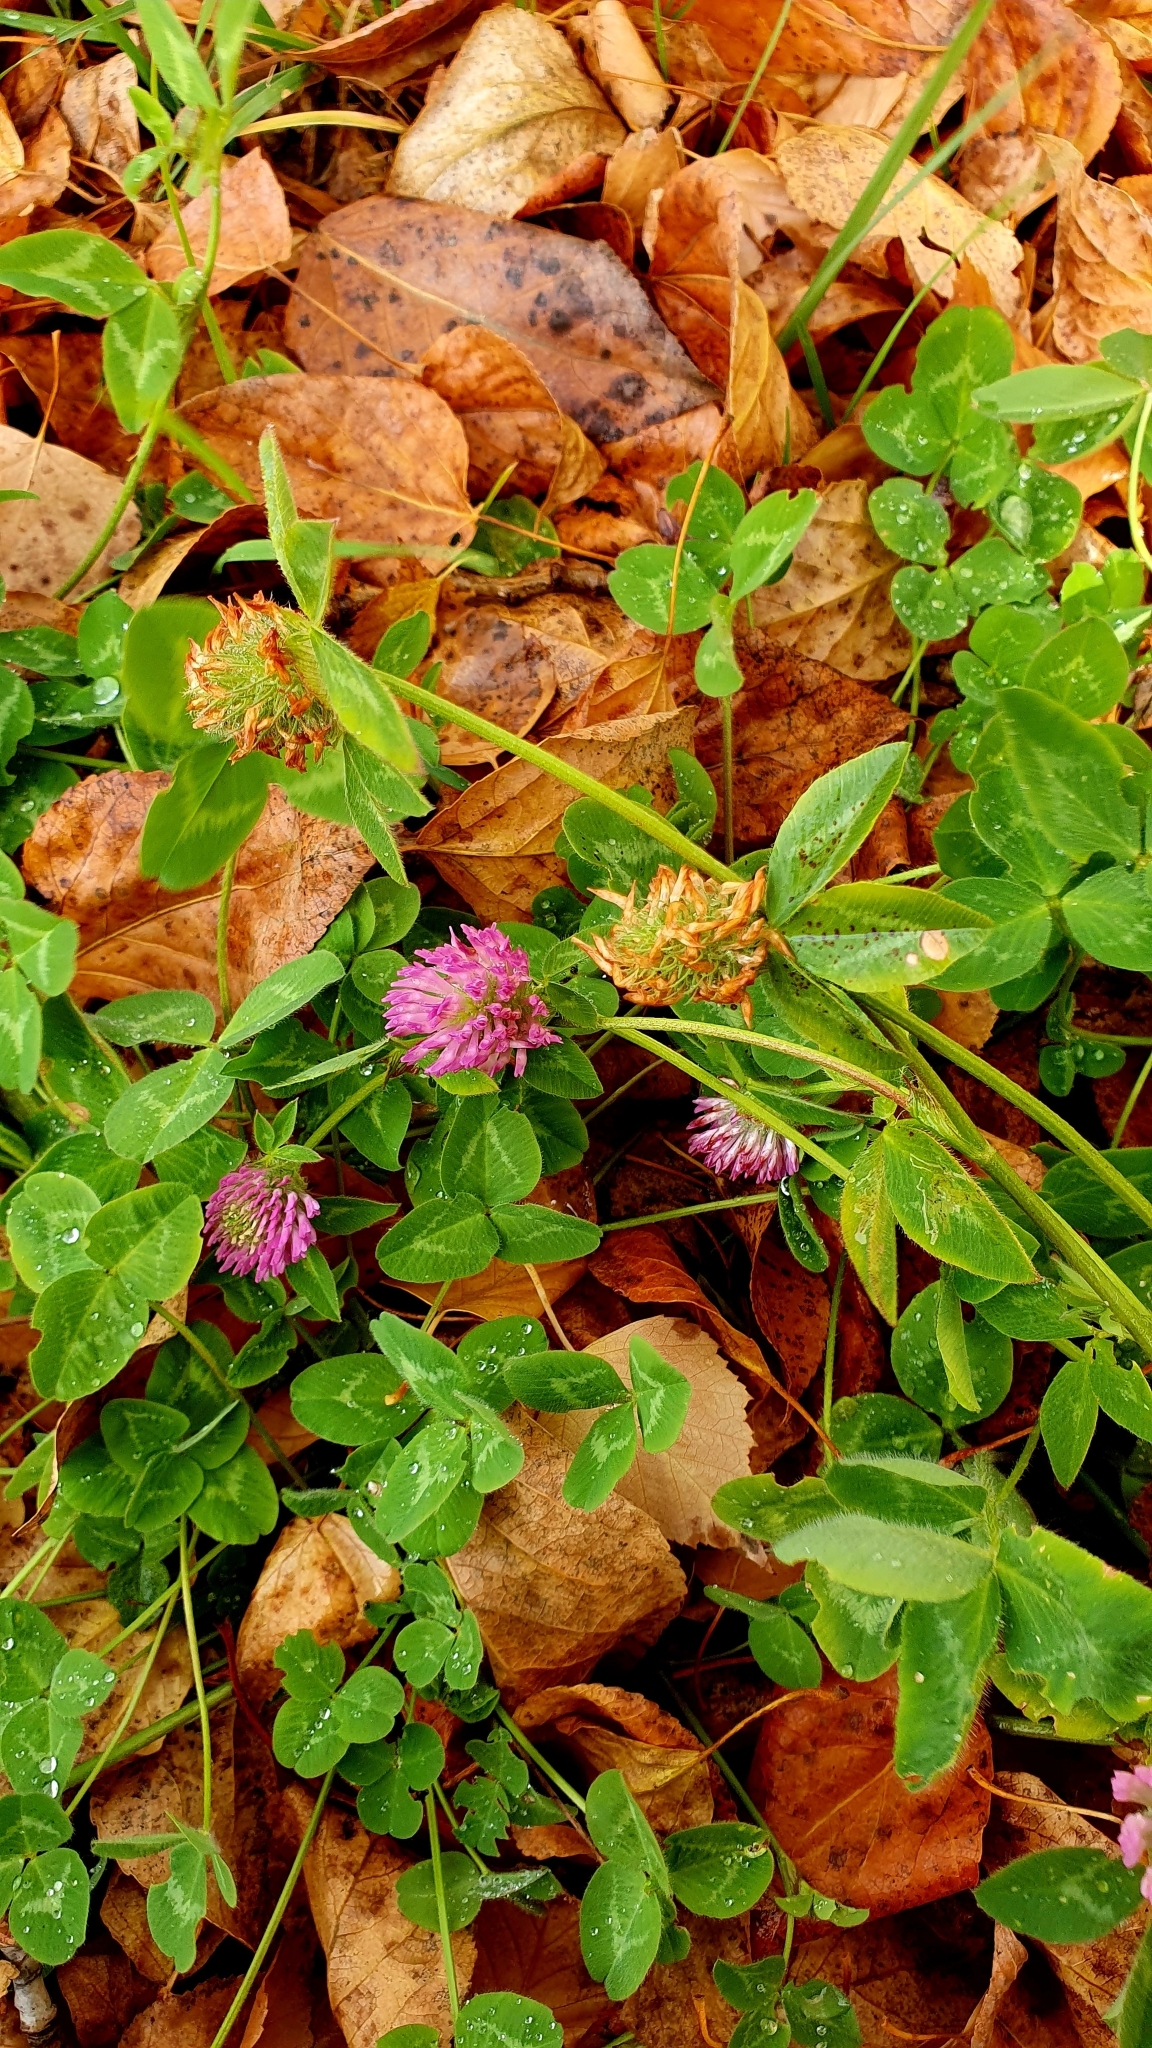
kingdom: Plantae
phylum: Tracheophyta
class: Magnoliopsida
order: Fabales
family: Fabaceae
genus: Trifolium
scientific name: Trifolium pratense
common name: Red clover
